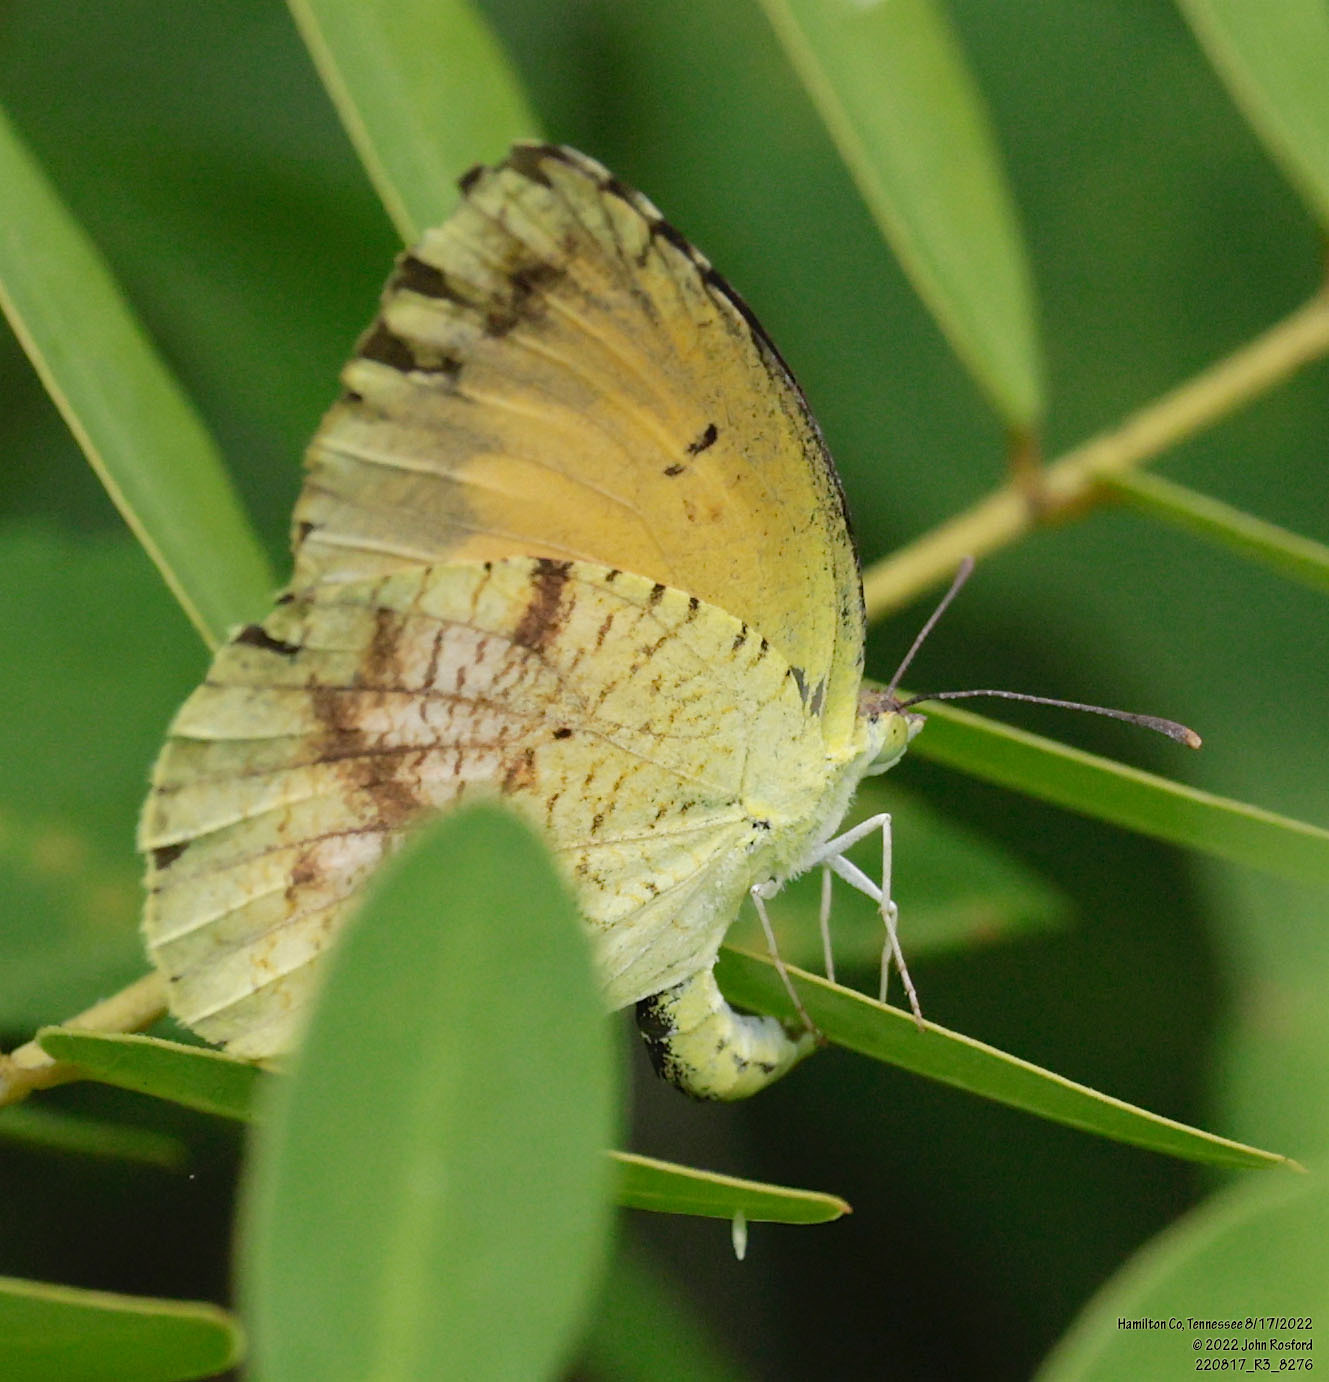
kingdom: Animalia
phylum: Arthropoda
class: Insecta
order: Lepidoptera
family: Pieridae
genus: Abaeis
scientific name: Abaeis nicippe
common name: Sleepy orange
